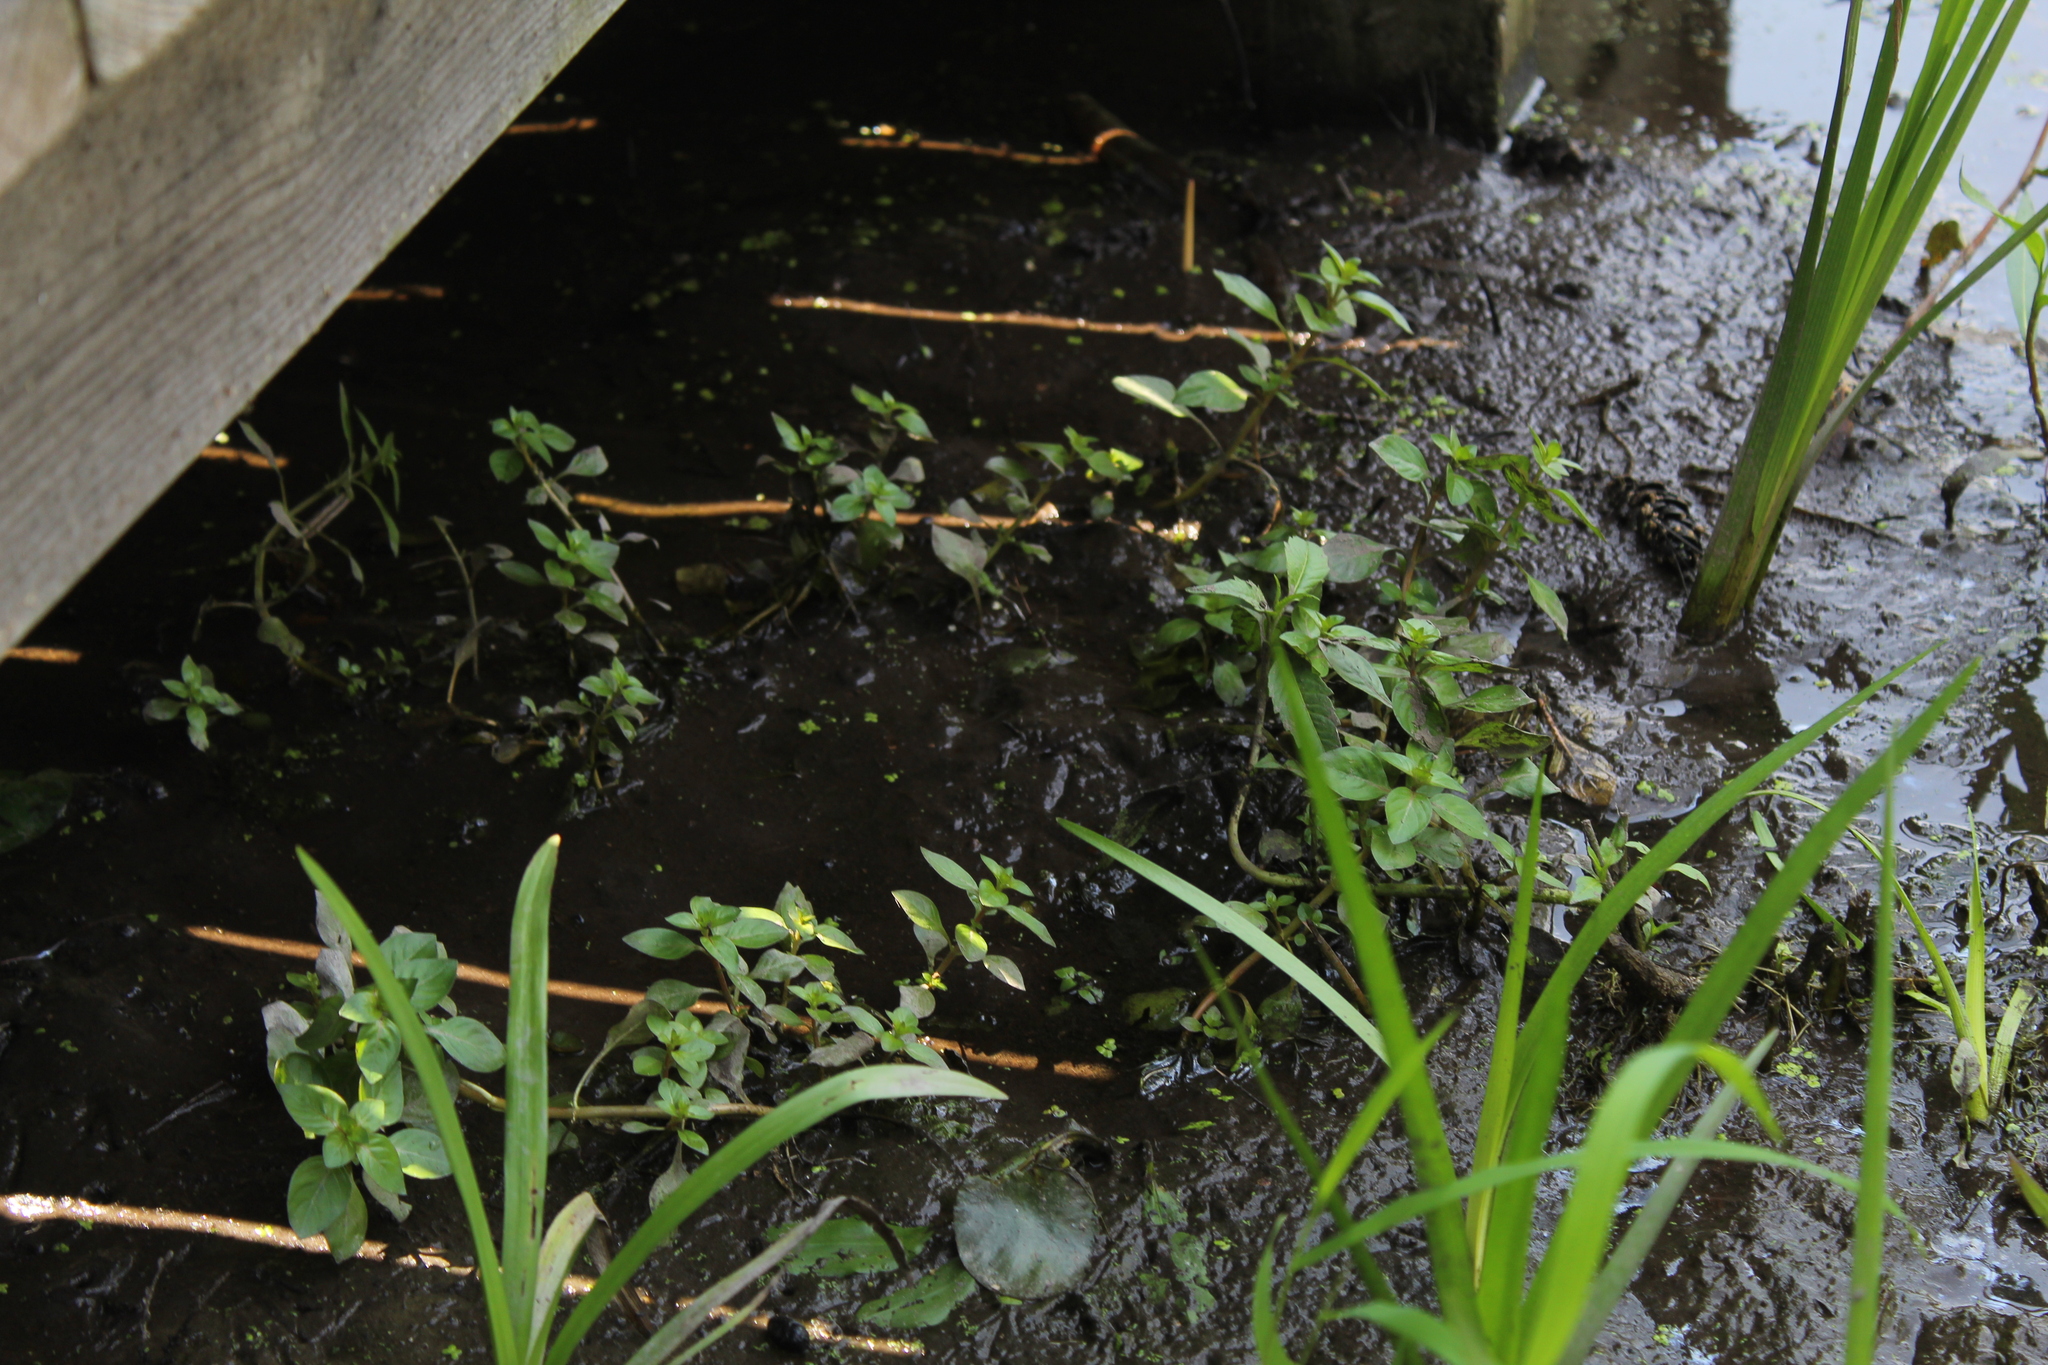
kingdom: Plantae
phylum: Tracheophyta
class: Magnoliopsida
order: Myrtales
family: Onagraceae
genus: Ludwigia
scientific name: Ludwigia palustris
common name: Hampshire-purslane
